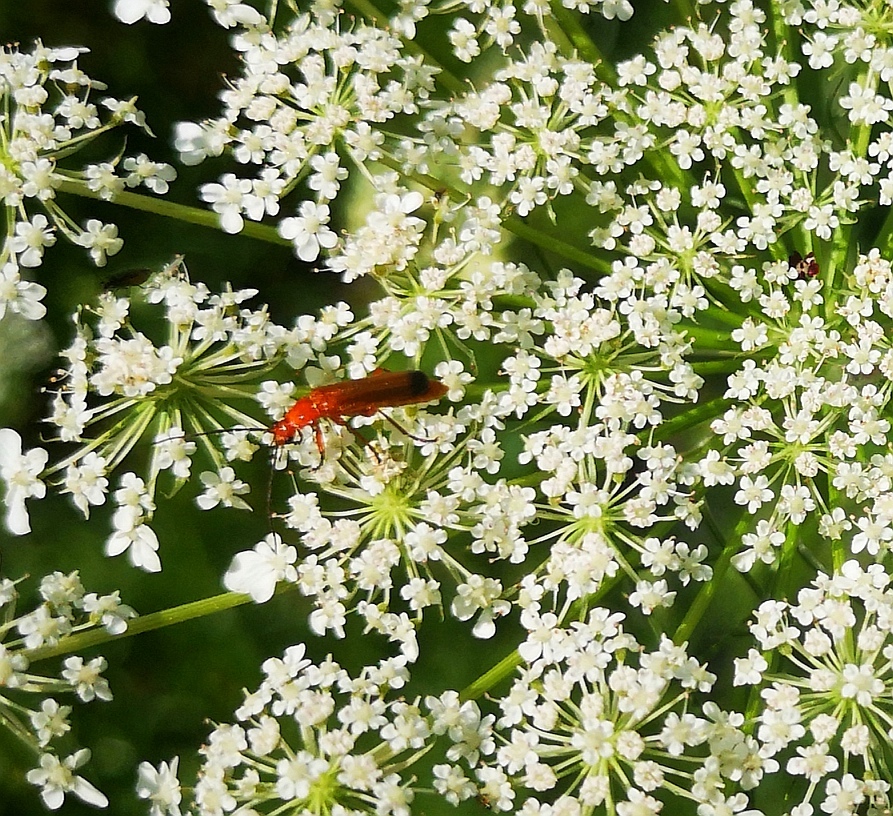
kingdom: Animalia
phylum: Arthropoda
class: Insecta
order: Coleoptera
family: Cantharidae
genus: Rhagonycha
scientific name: Rhagonycha fulva
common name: Common red soldier beetle
